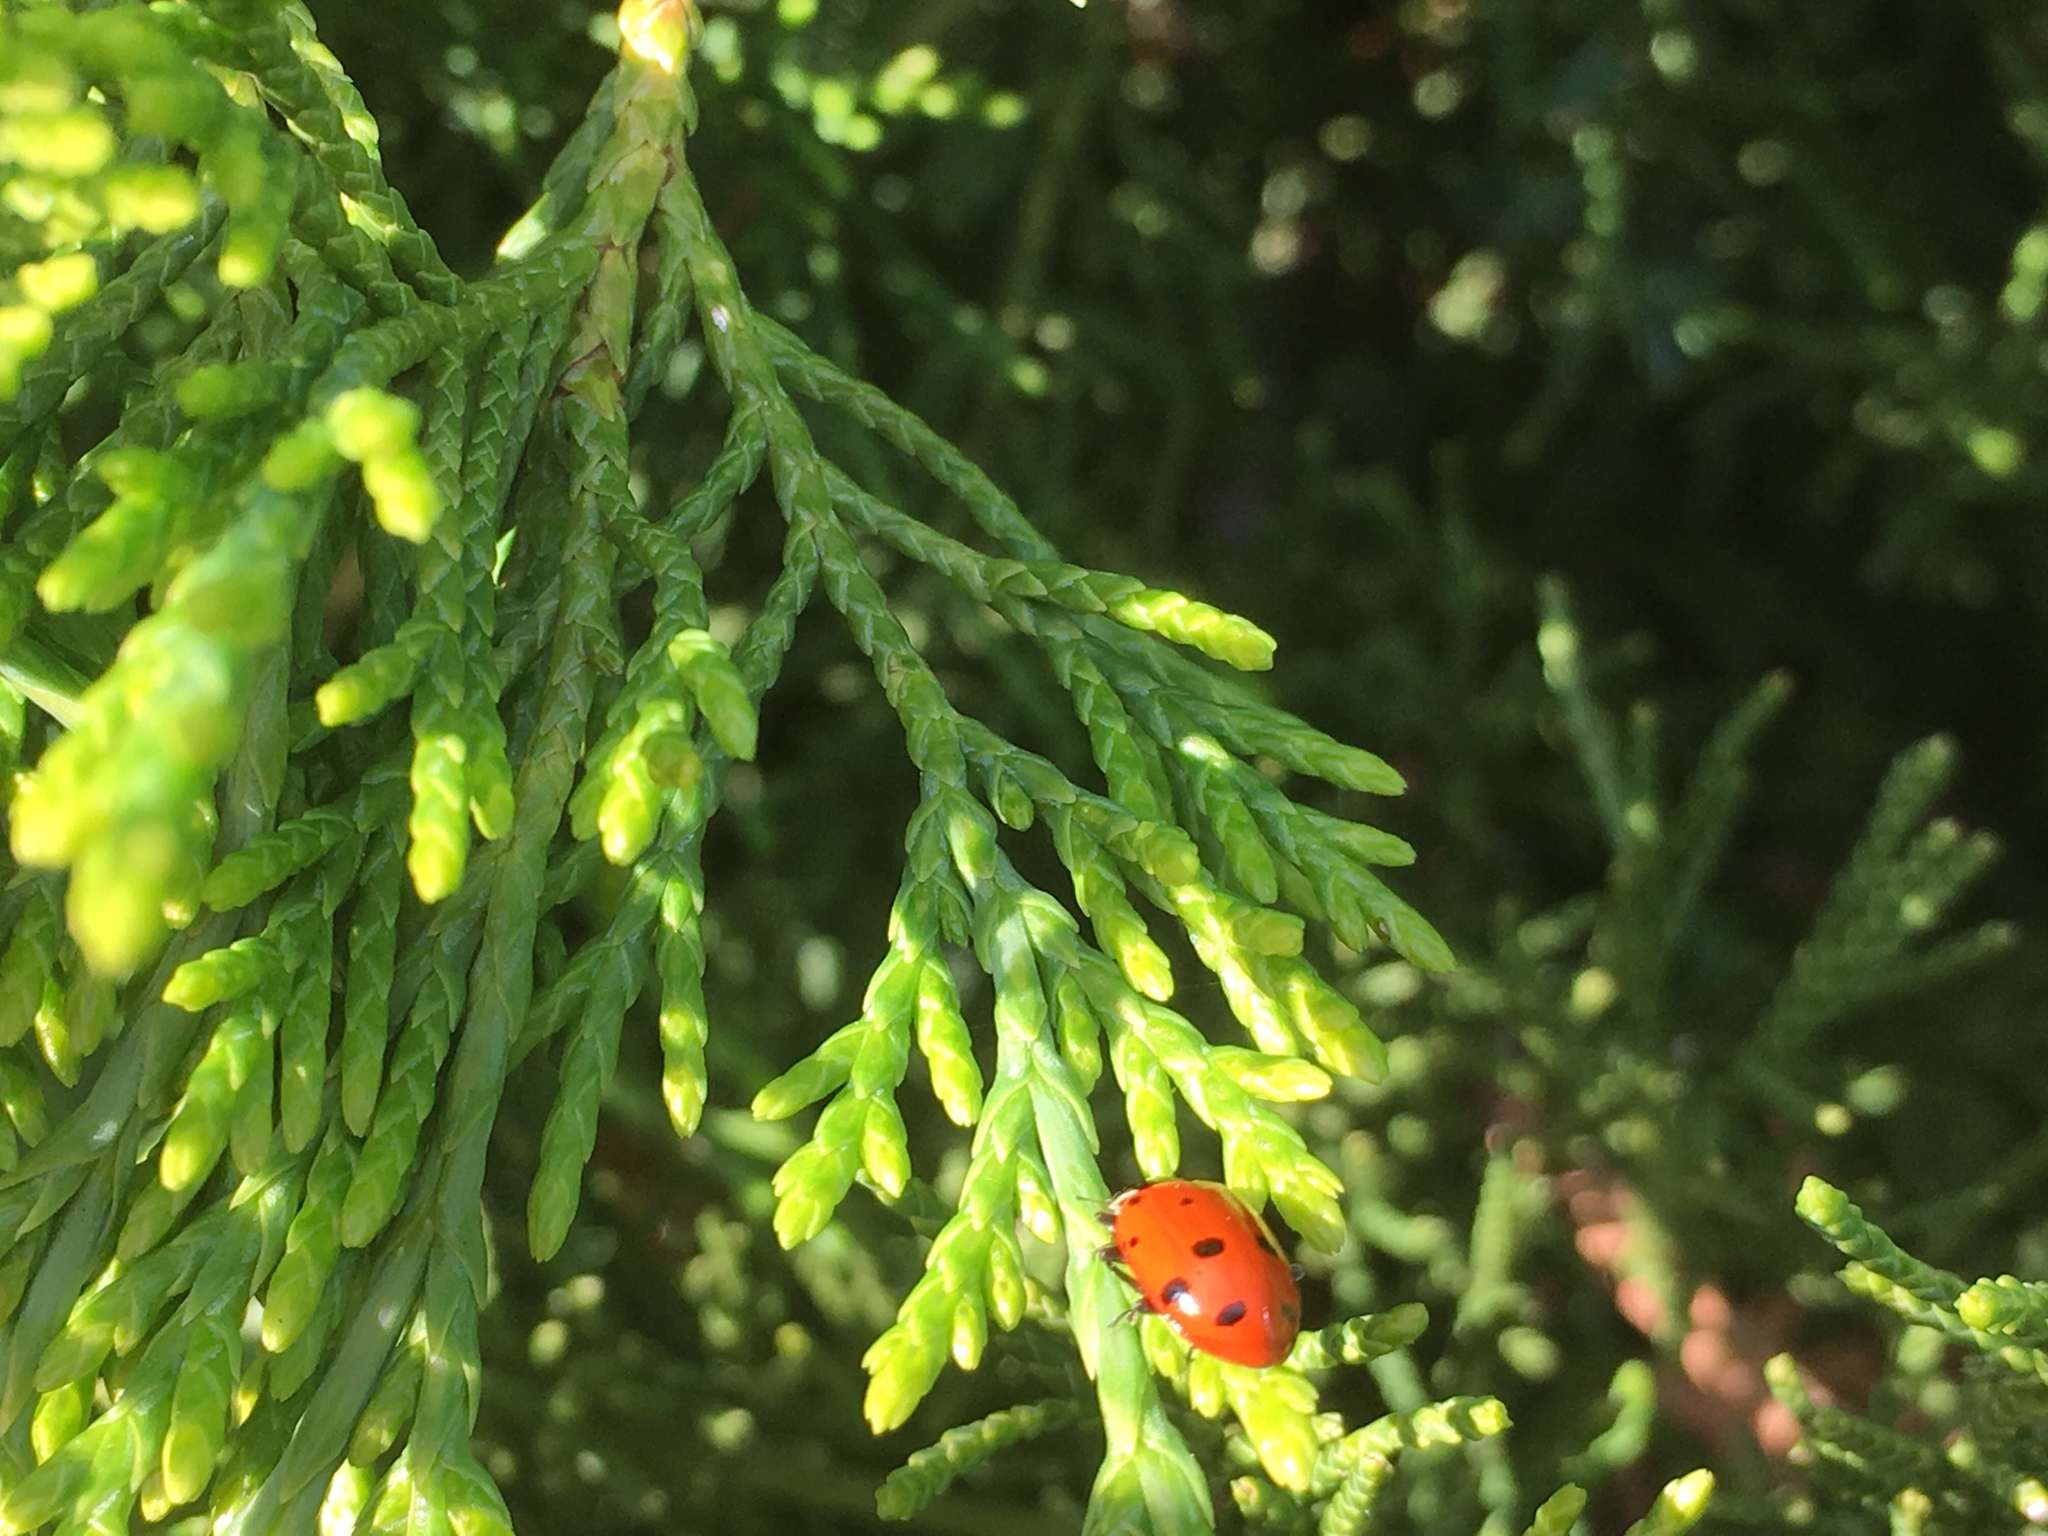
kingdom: Animalia
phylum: Arthropoda
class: Insecta
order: Coleoptera
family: Coccinellidae
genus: Hippodamia
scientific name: Hippodamia convergens
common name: Convergent lady beetle
